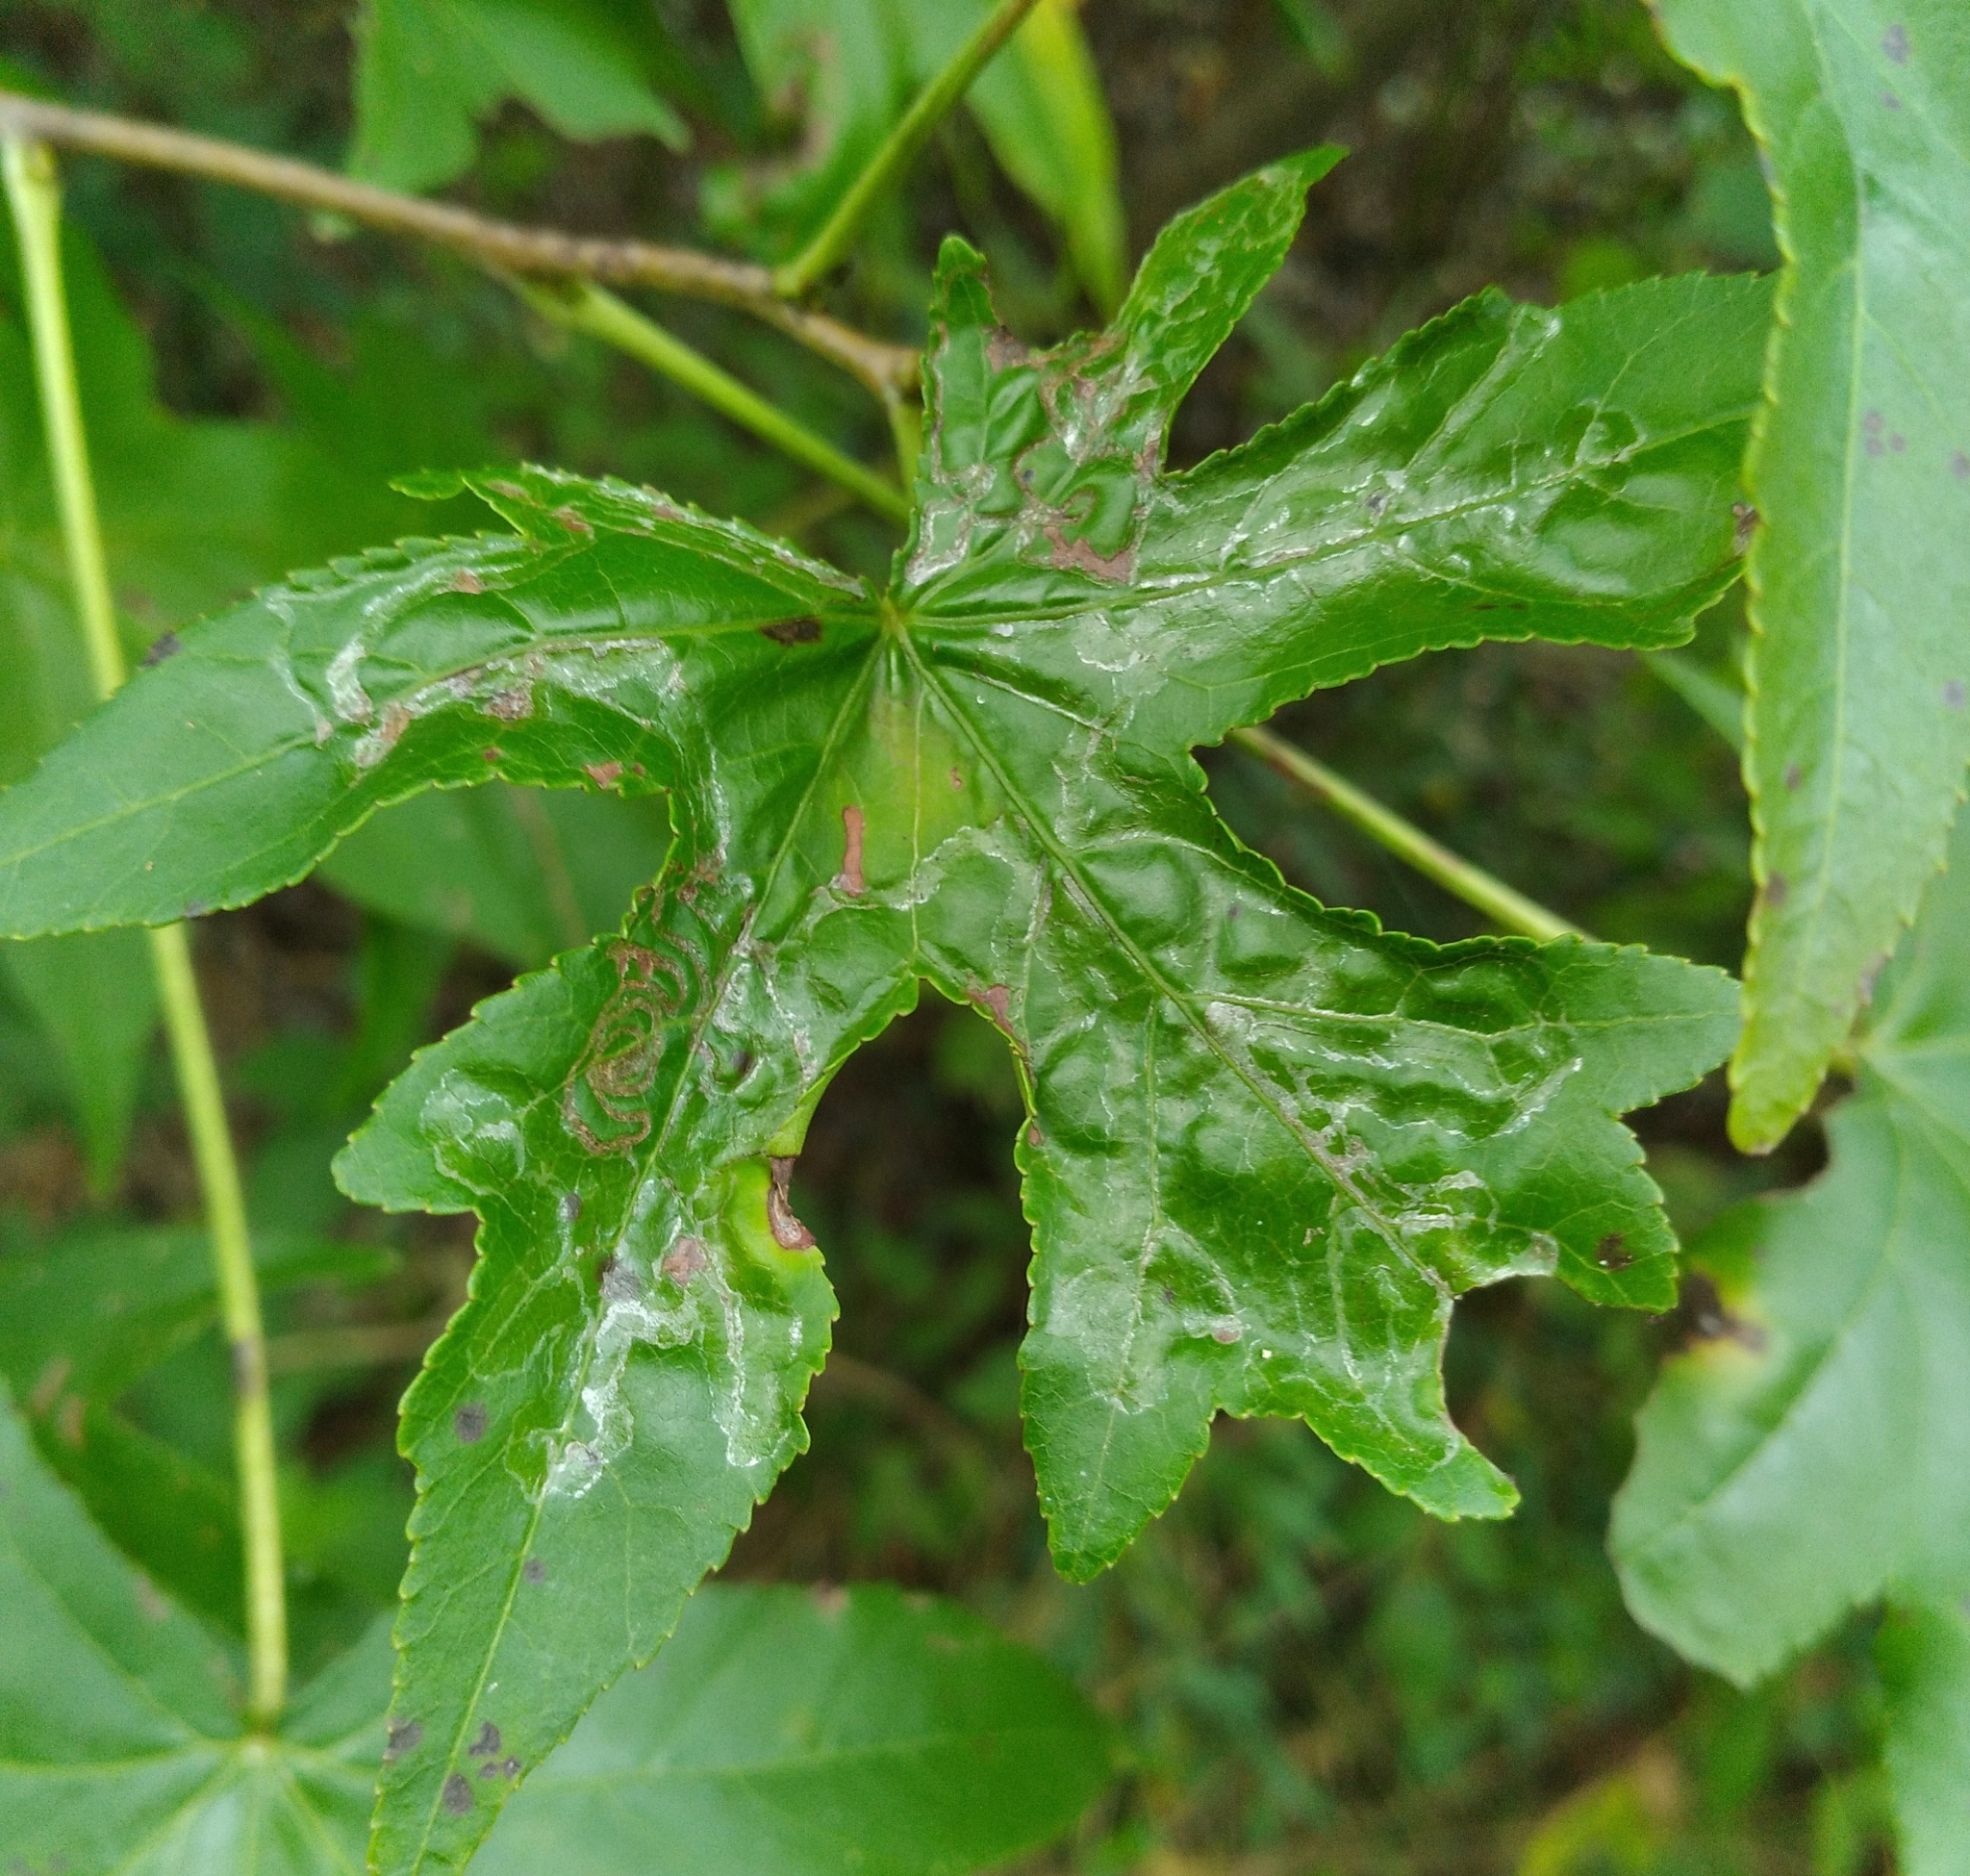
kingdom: Animalia
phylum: Arthropoda
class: Insecta
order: Lepidoptera
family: Gracillariidae
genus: Phyllocnistis
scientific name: Phyllocnistis liquidambarisella
